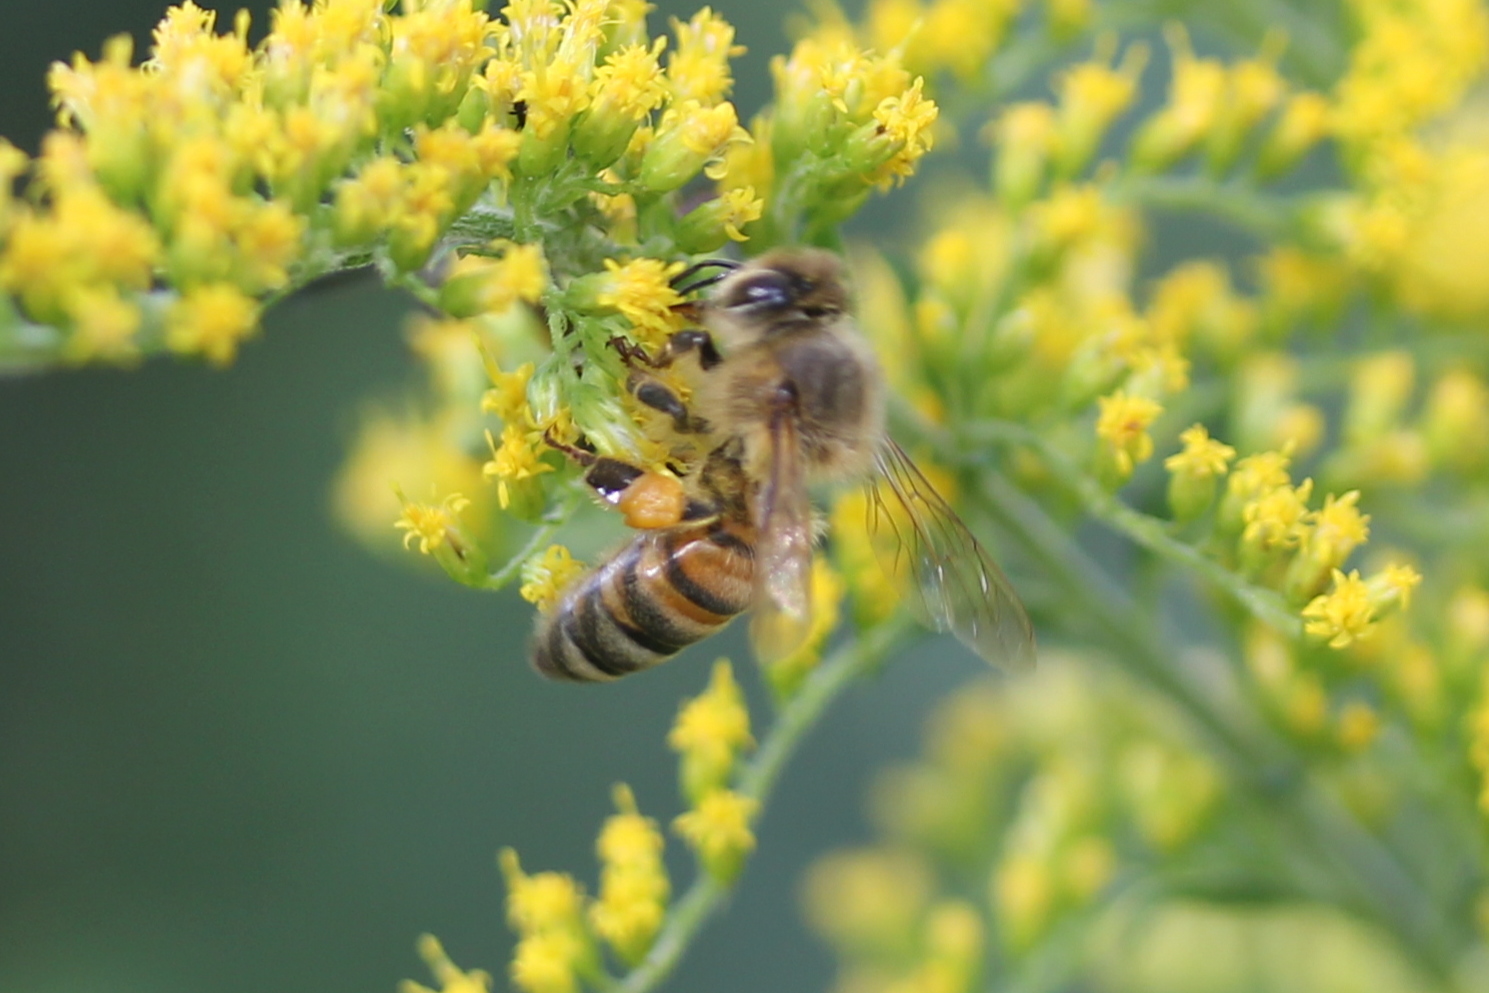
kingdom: Animalia
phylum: Arthropoda
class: Insecta
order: Hymenoptera
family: Apidae
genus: Apis
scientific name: Apis mellifera
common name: Honey bee
